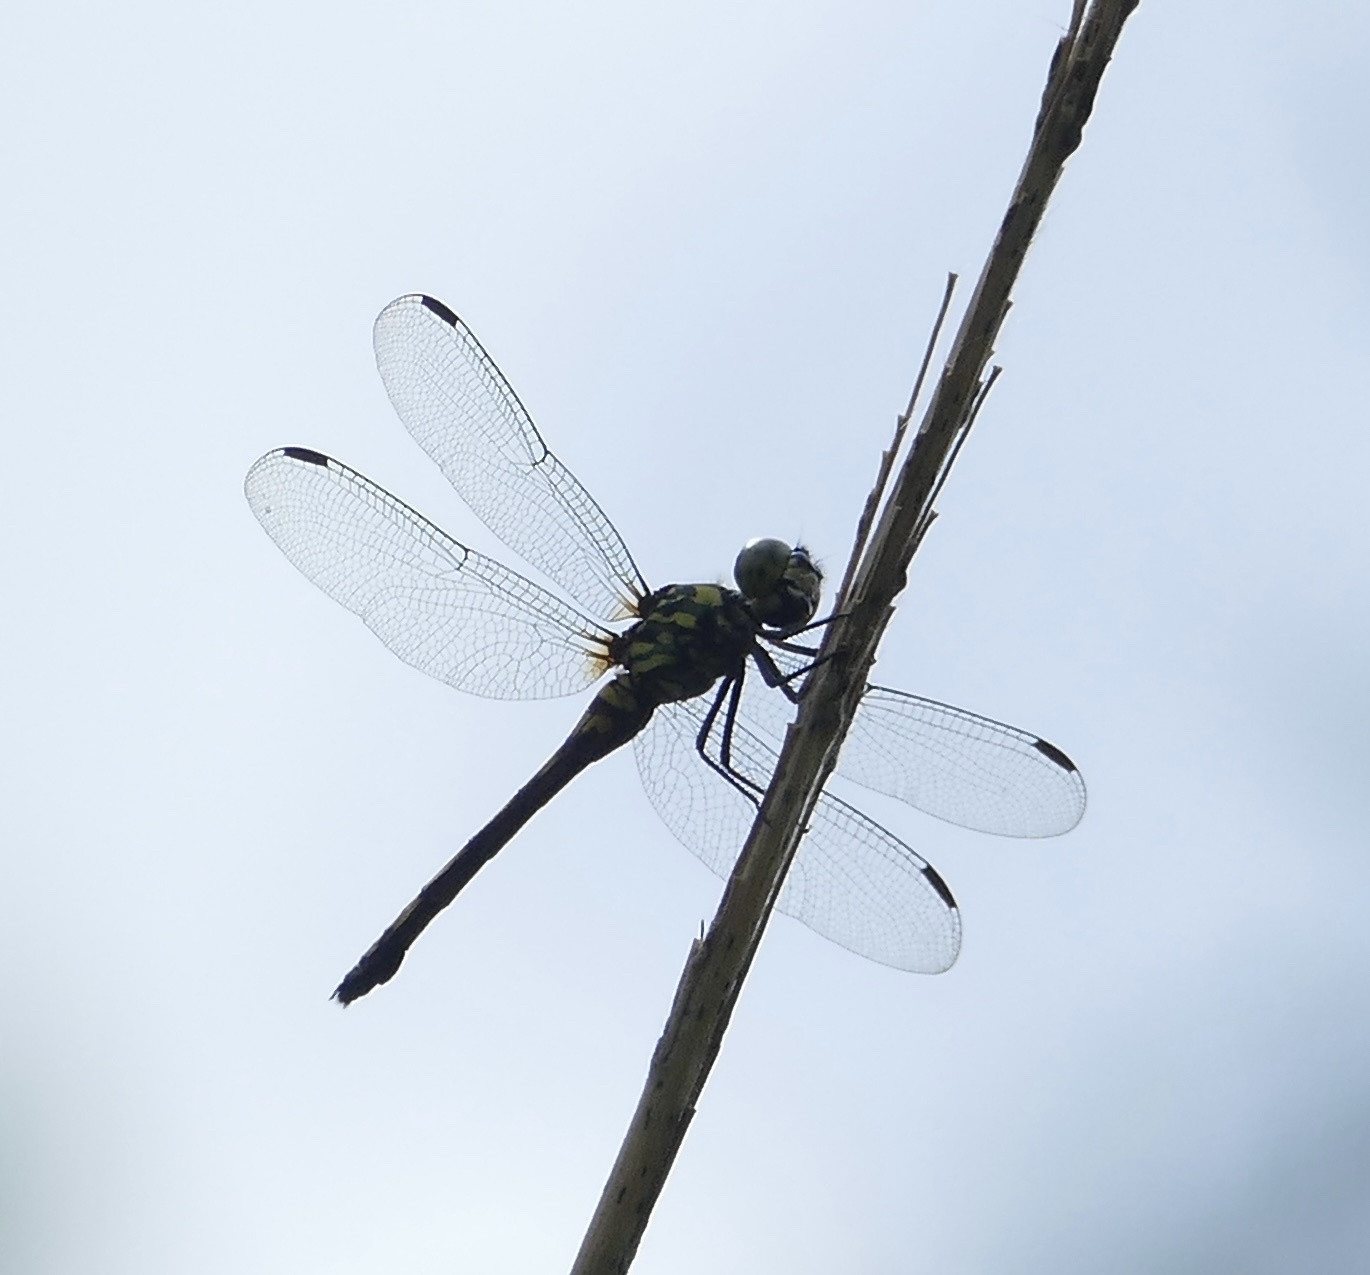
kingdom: Animalia
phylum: Arthropoda
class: Insecta
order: Odonata
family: Libellulidae
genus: Agrionoptera
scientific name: Agrionoptera insignis
